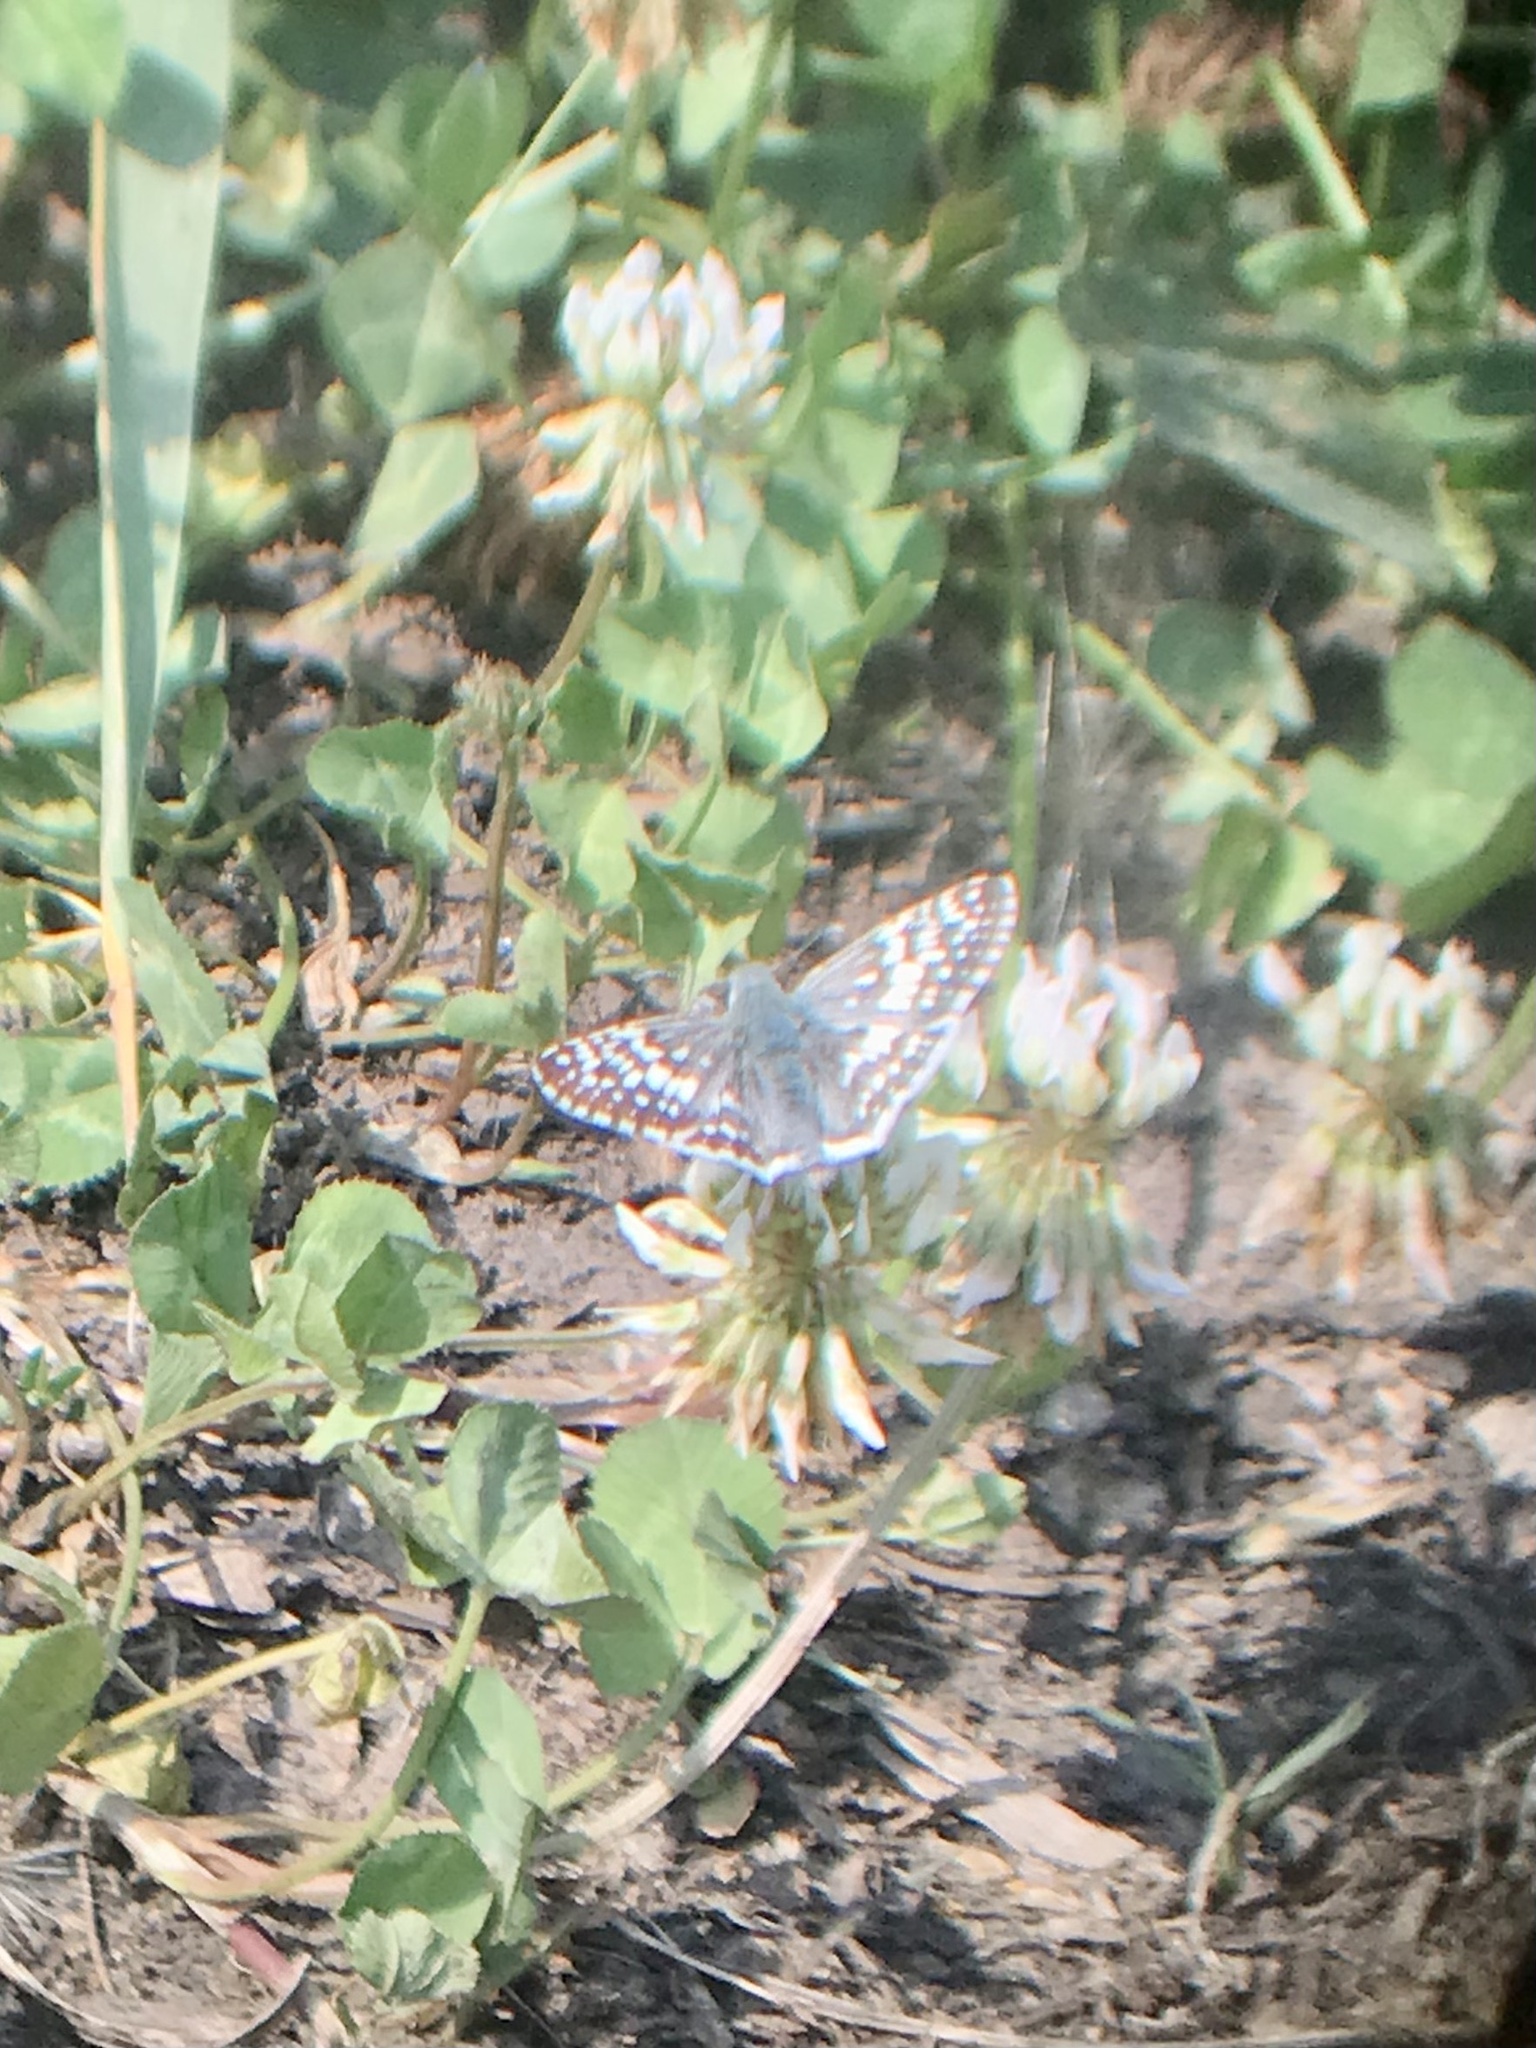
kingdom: Animalia
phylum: Arthropoda
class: Insecta
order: Lepidoptera
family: Hesperiidae
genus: Burnsius
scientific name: Burnsius communis
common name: Common checkered-skipper
